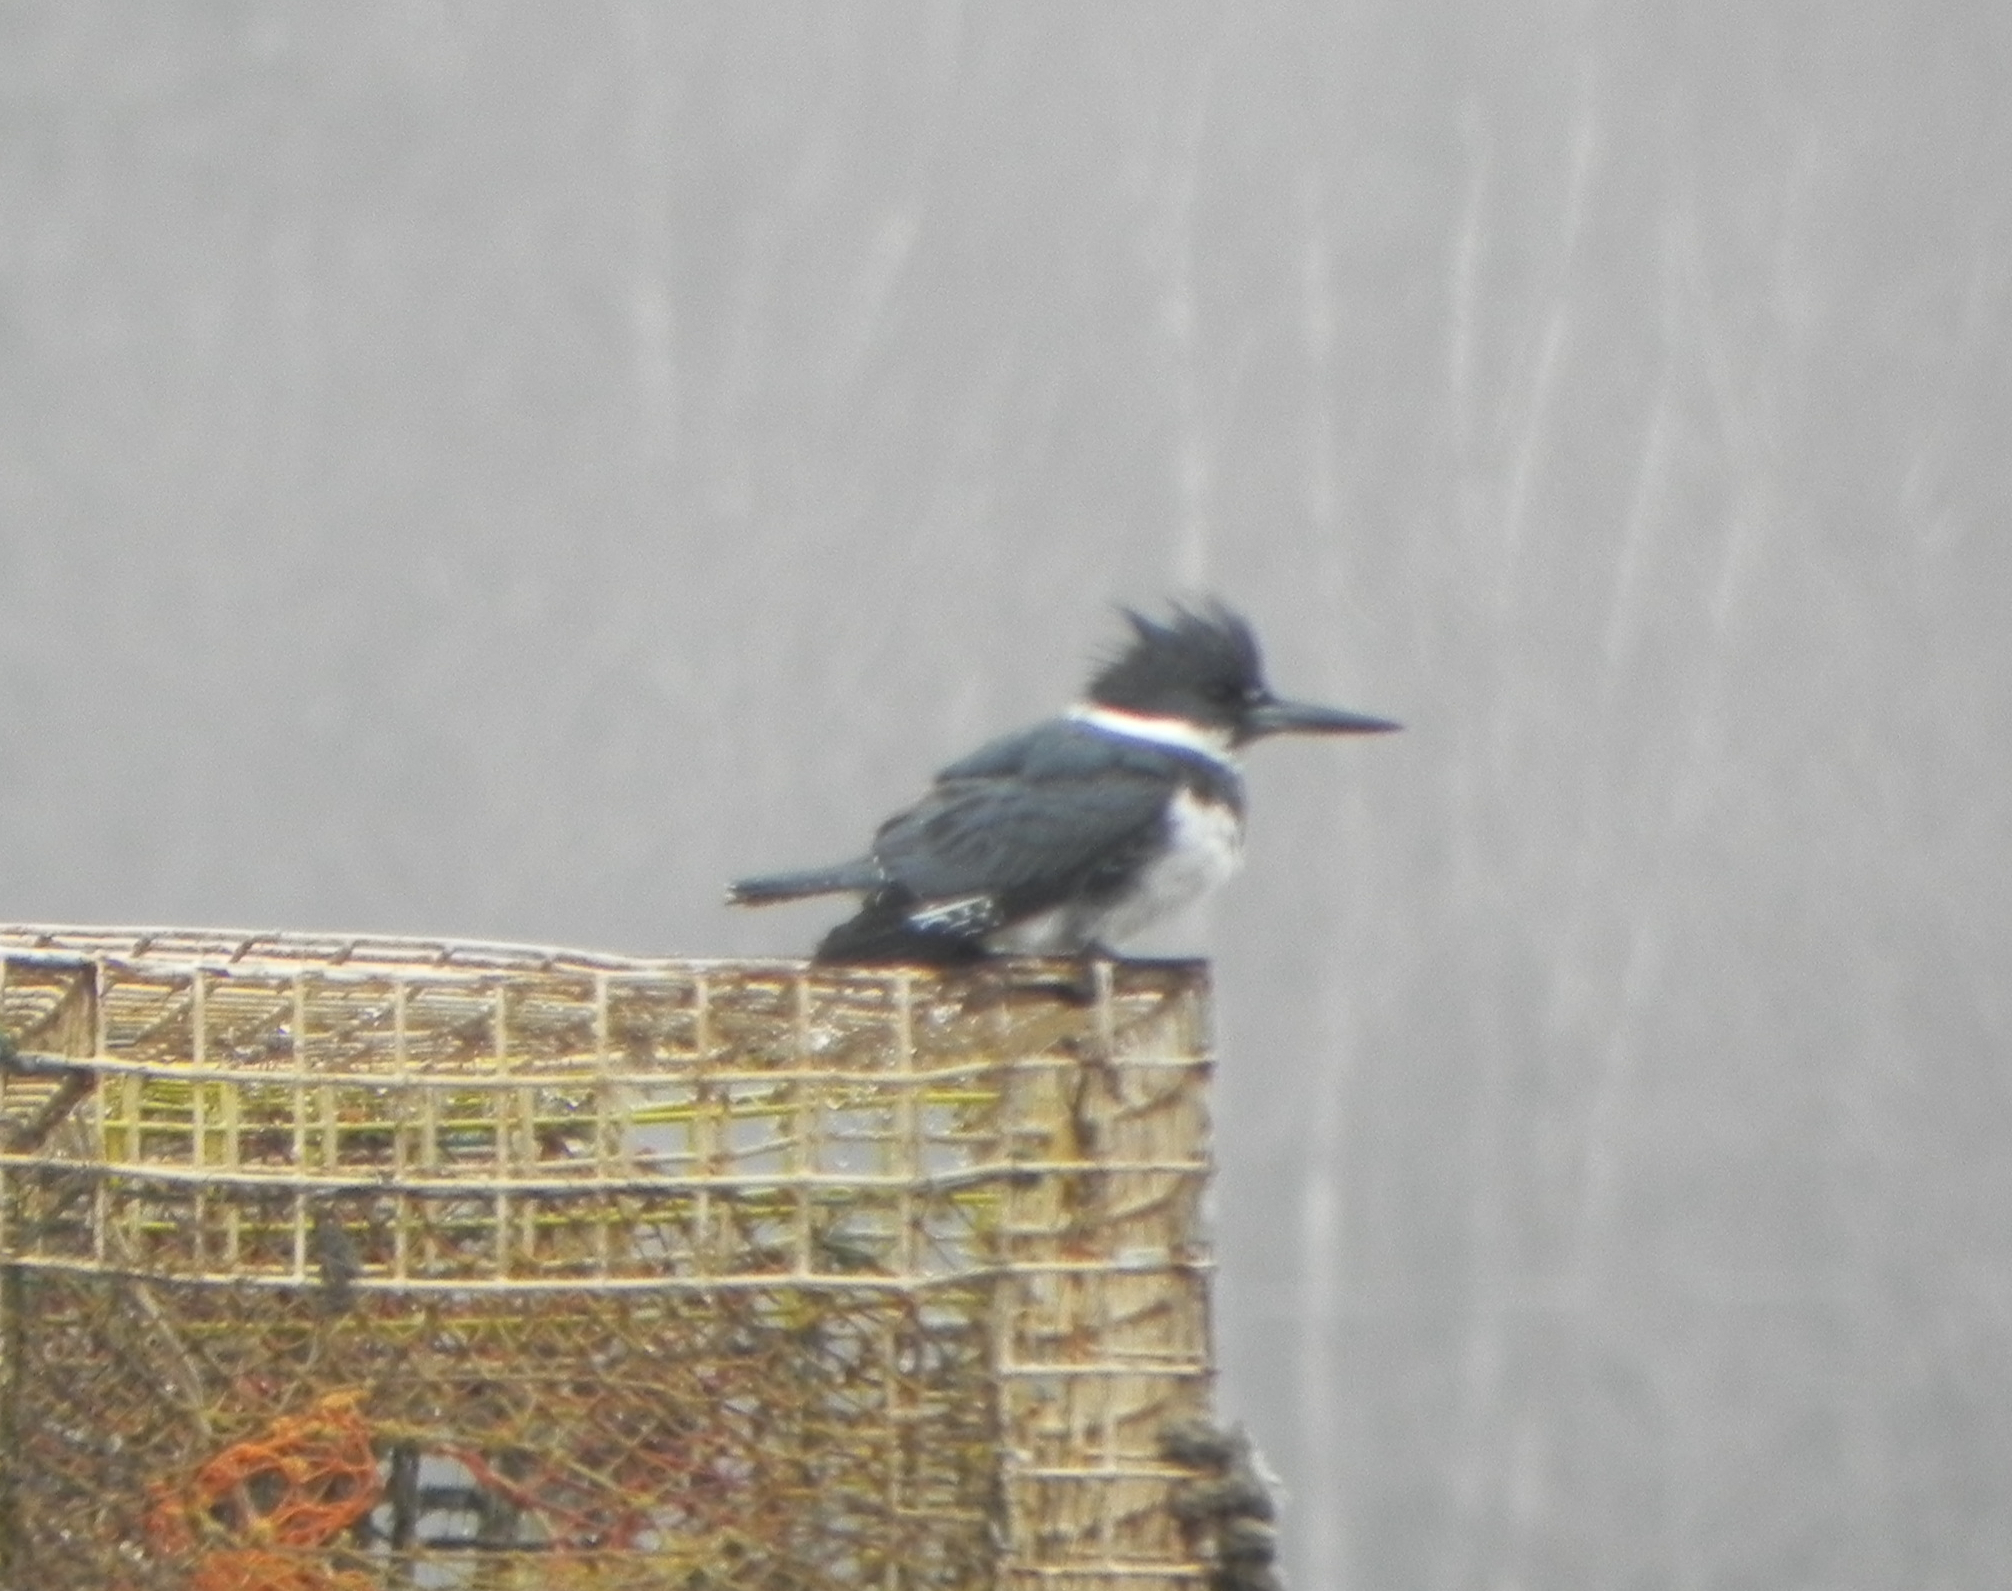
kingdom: Animalia
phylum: Chordata
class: Aves
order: Coraciiformes
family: Alcedinidae
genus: Megaceryle
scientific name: Megaceryle alcyon
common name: Belted kingfisher
